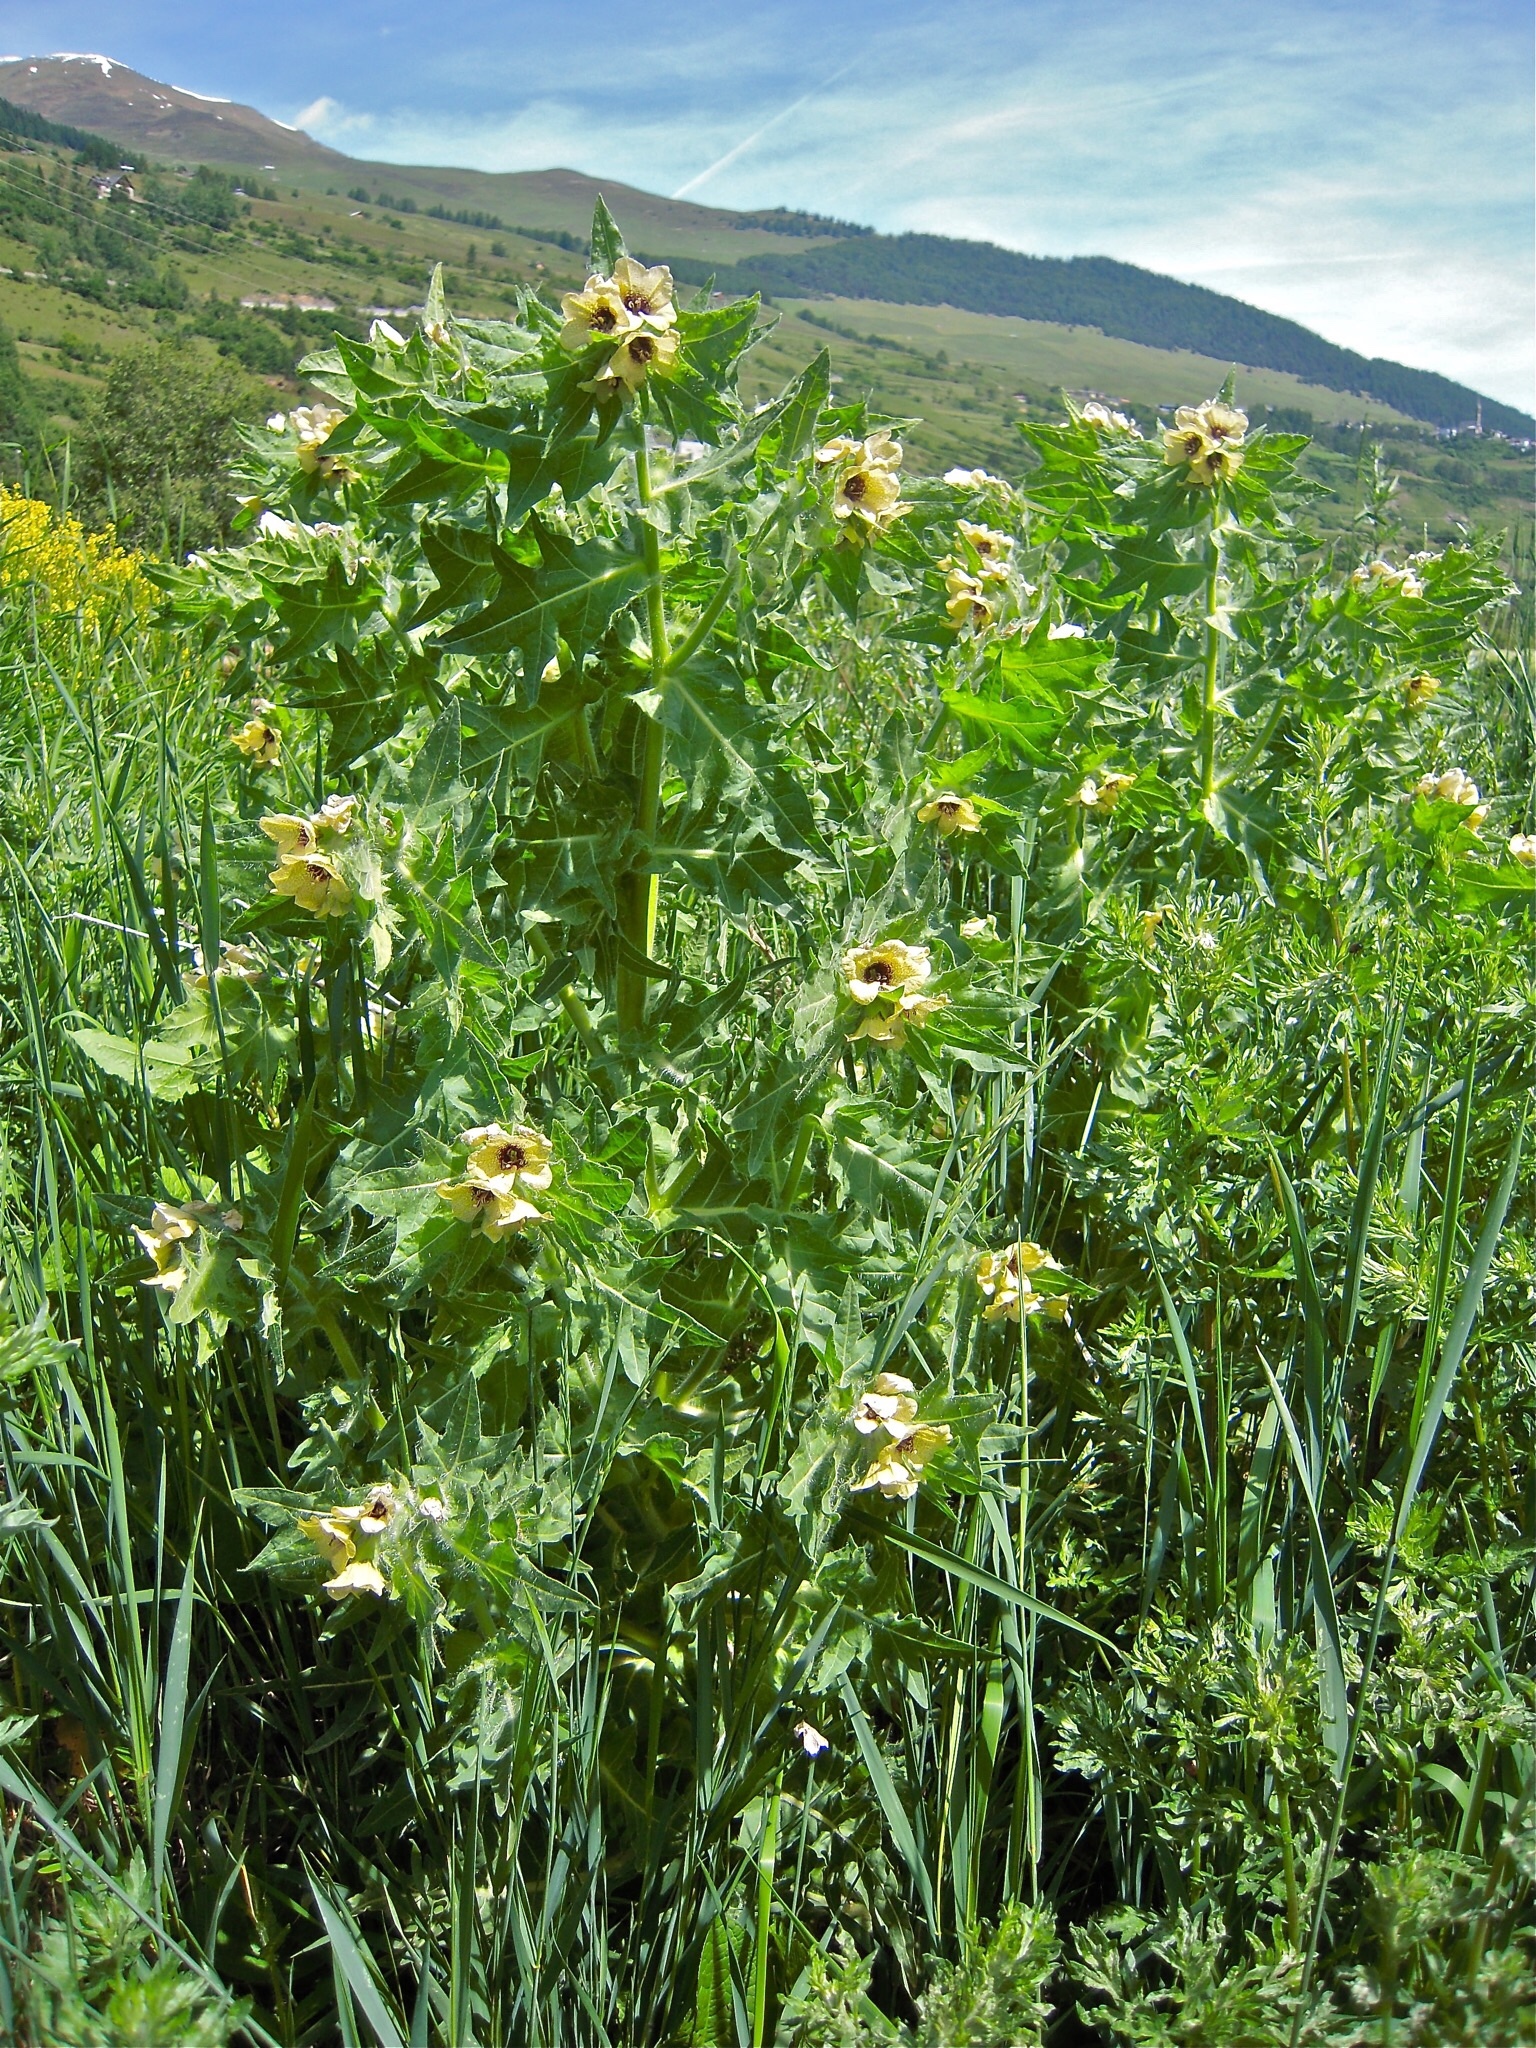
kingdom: Plantae
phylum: Tracheophyta
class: Magnoliopsida
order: Solanales
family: Solanaceae
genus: Hyoscyamus
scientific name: Hyoscyamus niger
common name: Henbane
